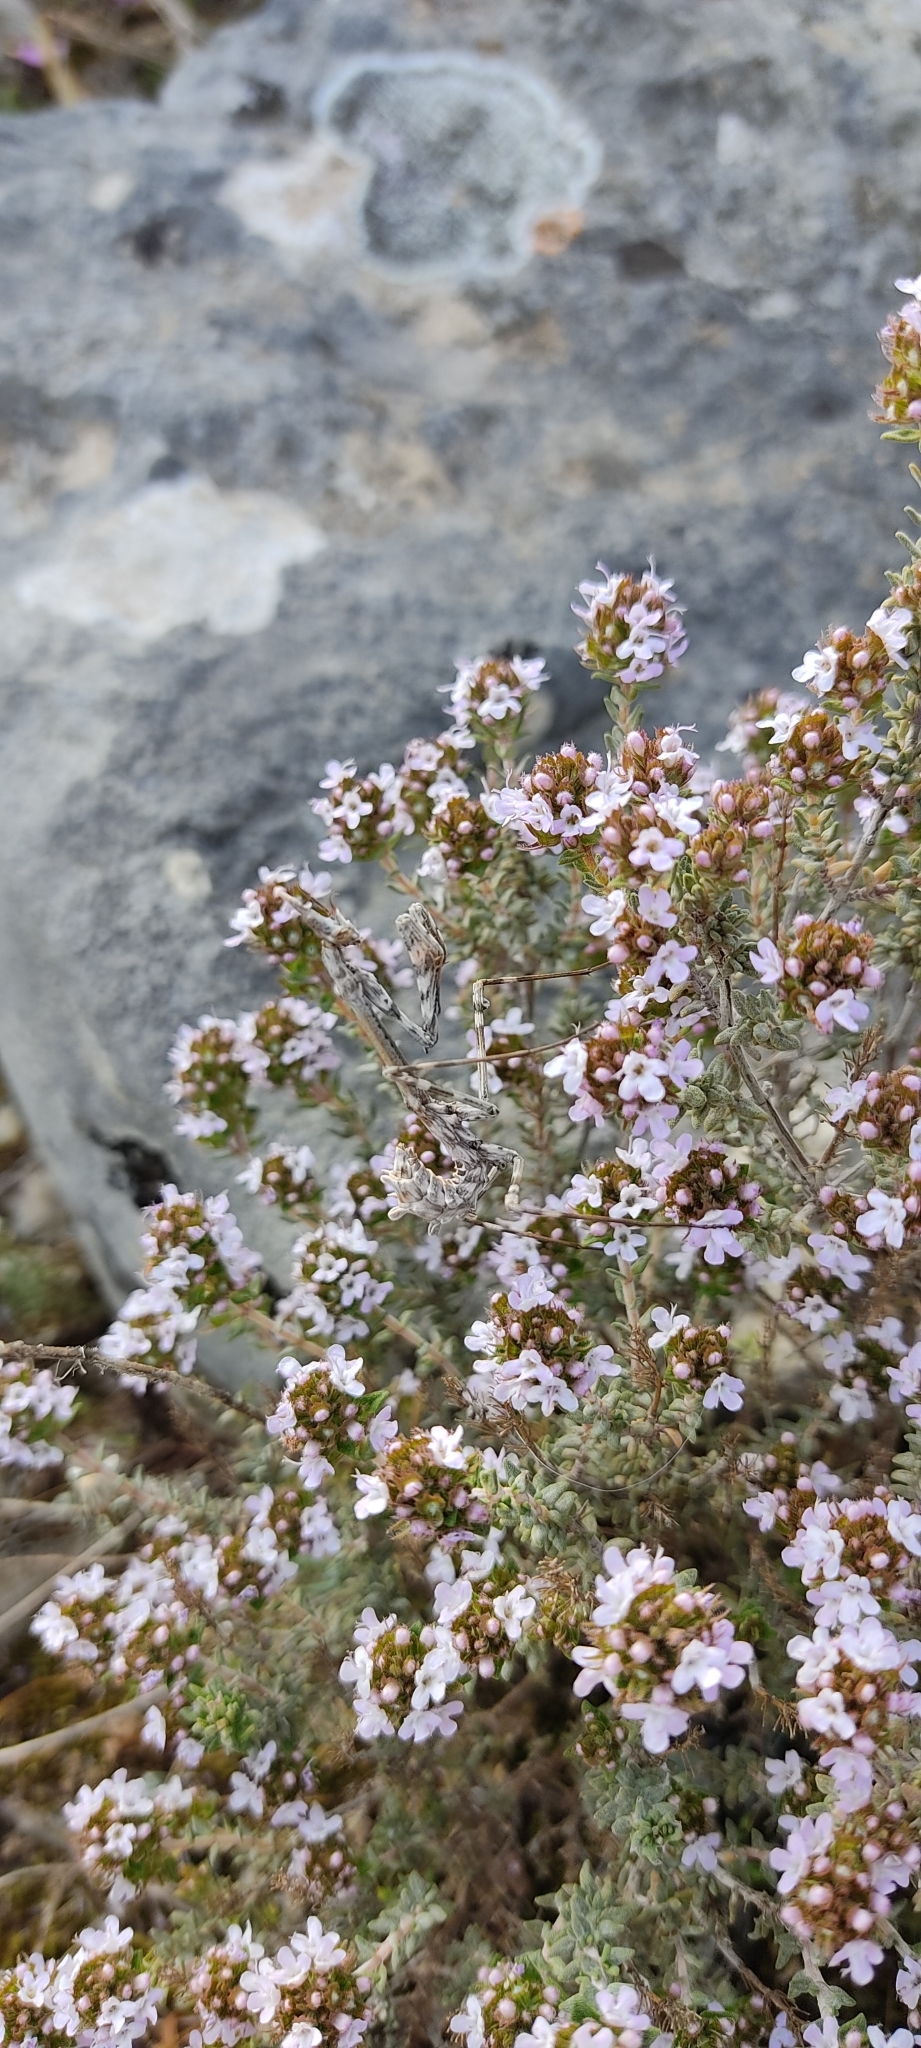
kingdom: Animalia
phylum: Arthropoda
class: Insecta
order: Mantodea
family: Empusidae
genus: Empusa
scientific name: Empusa pennata
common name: Conehead mantis
